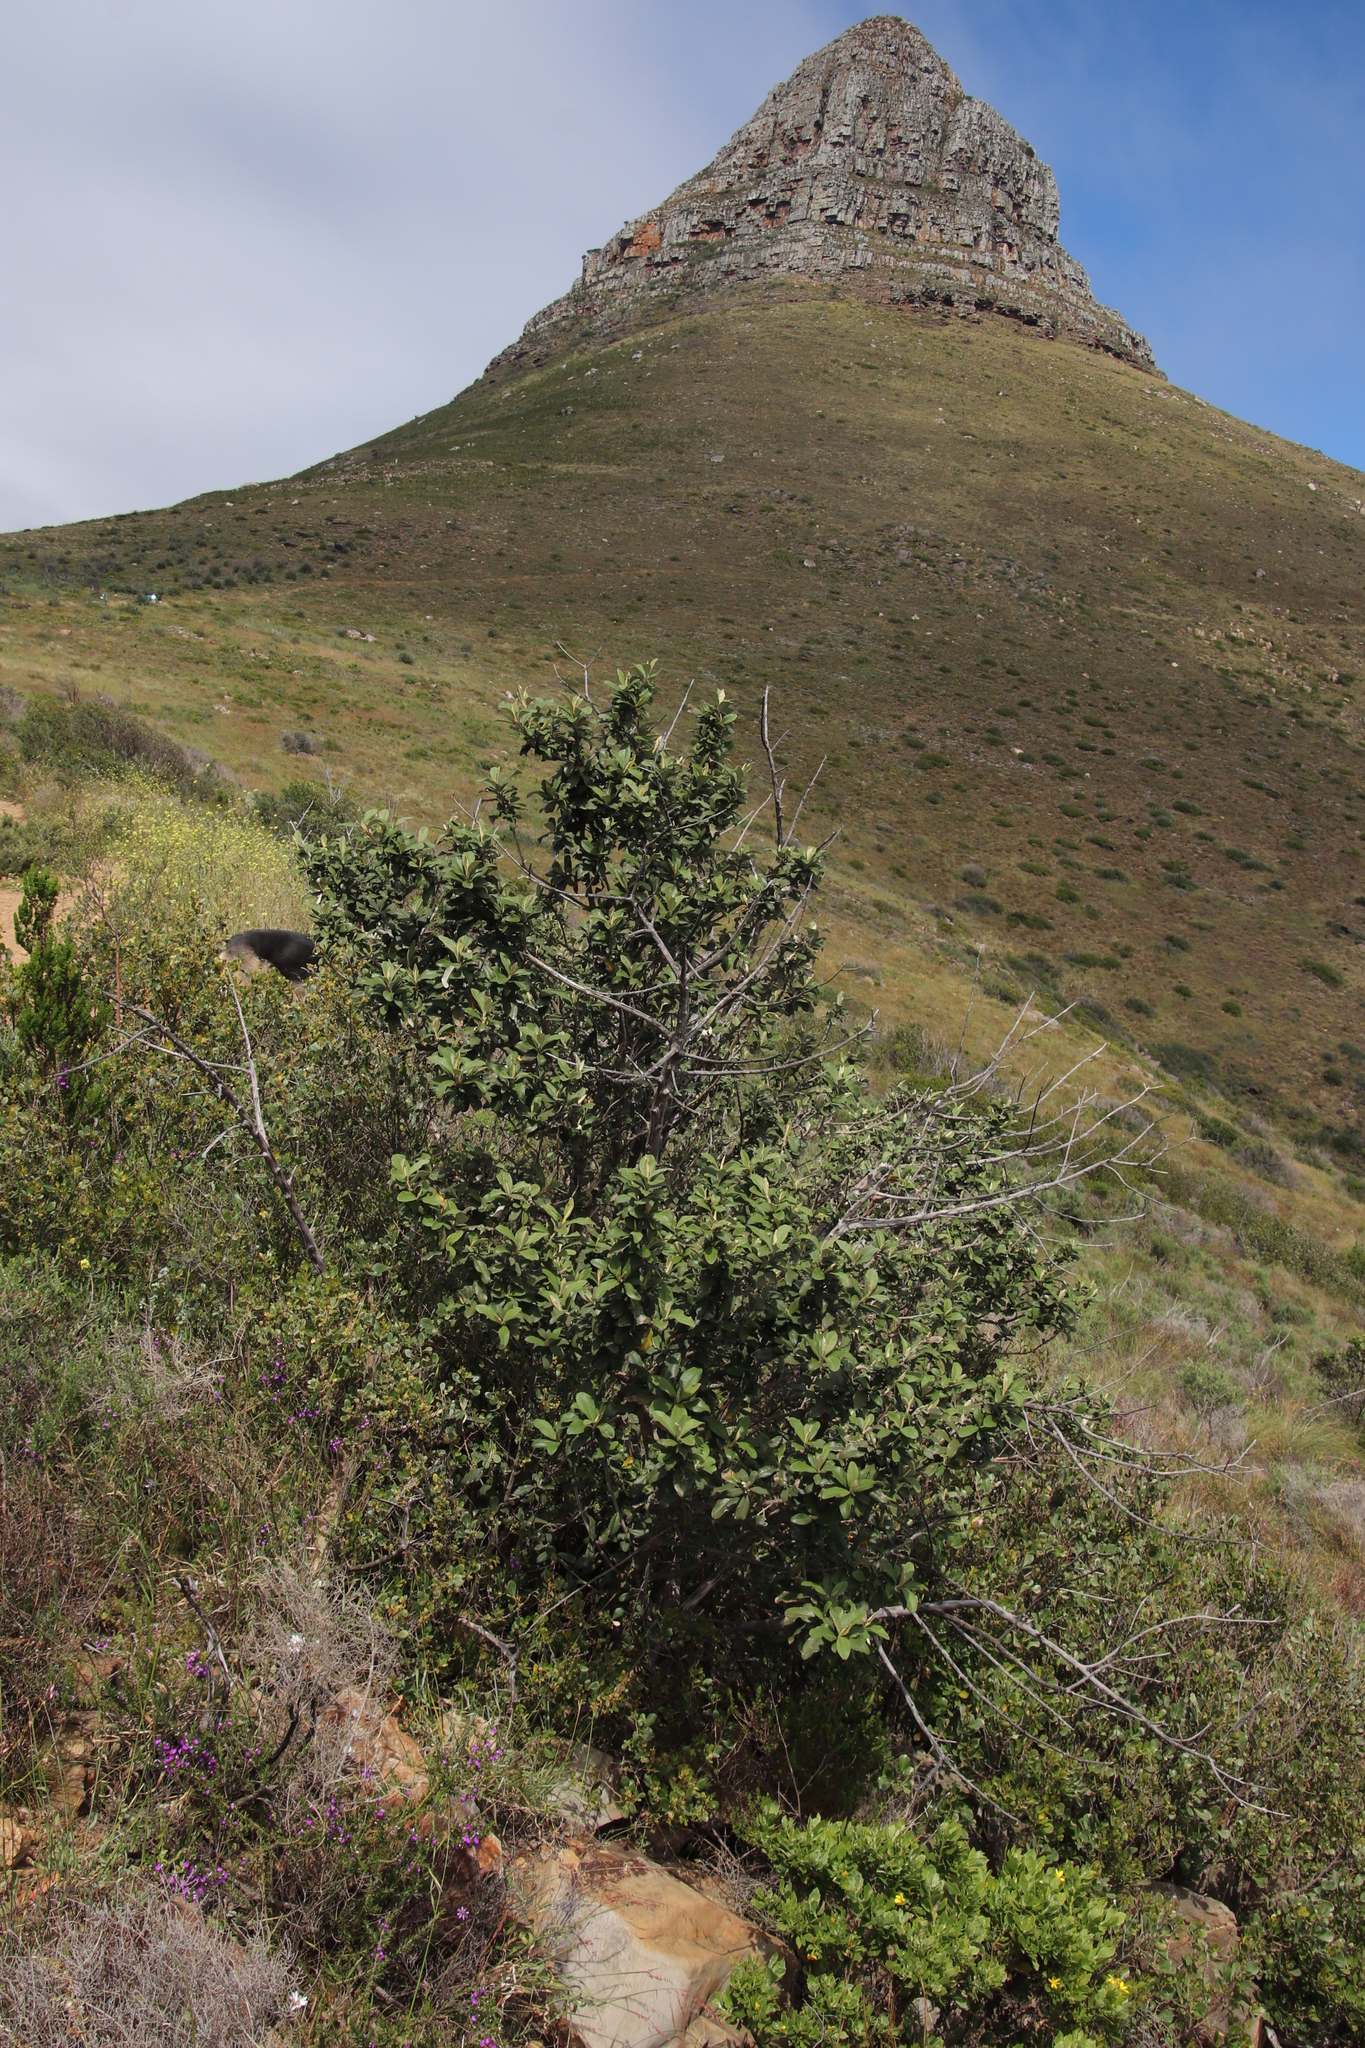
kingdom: Plantae
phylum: Tracheophyta
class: Magnoliopsida
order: Asterales
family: Asteraceae
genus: Tarchonanthus
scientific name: Tarchonanthus littoralis
